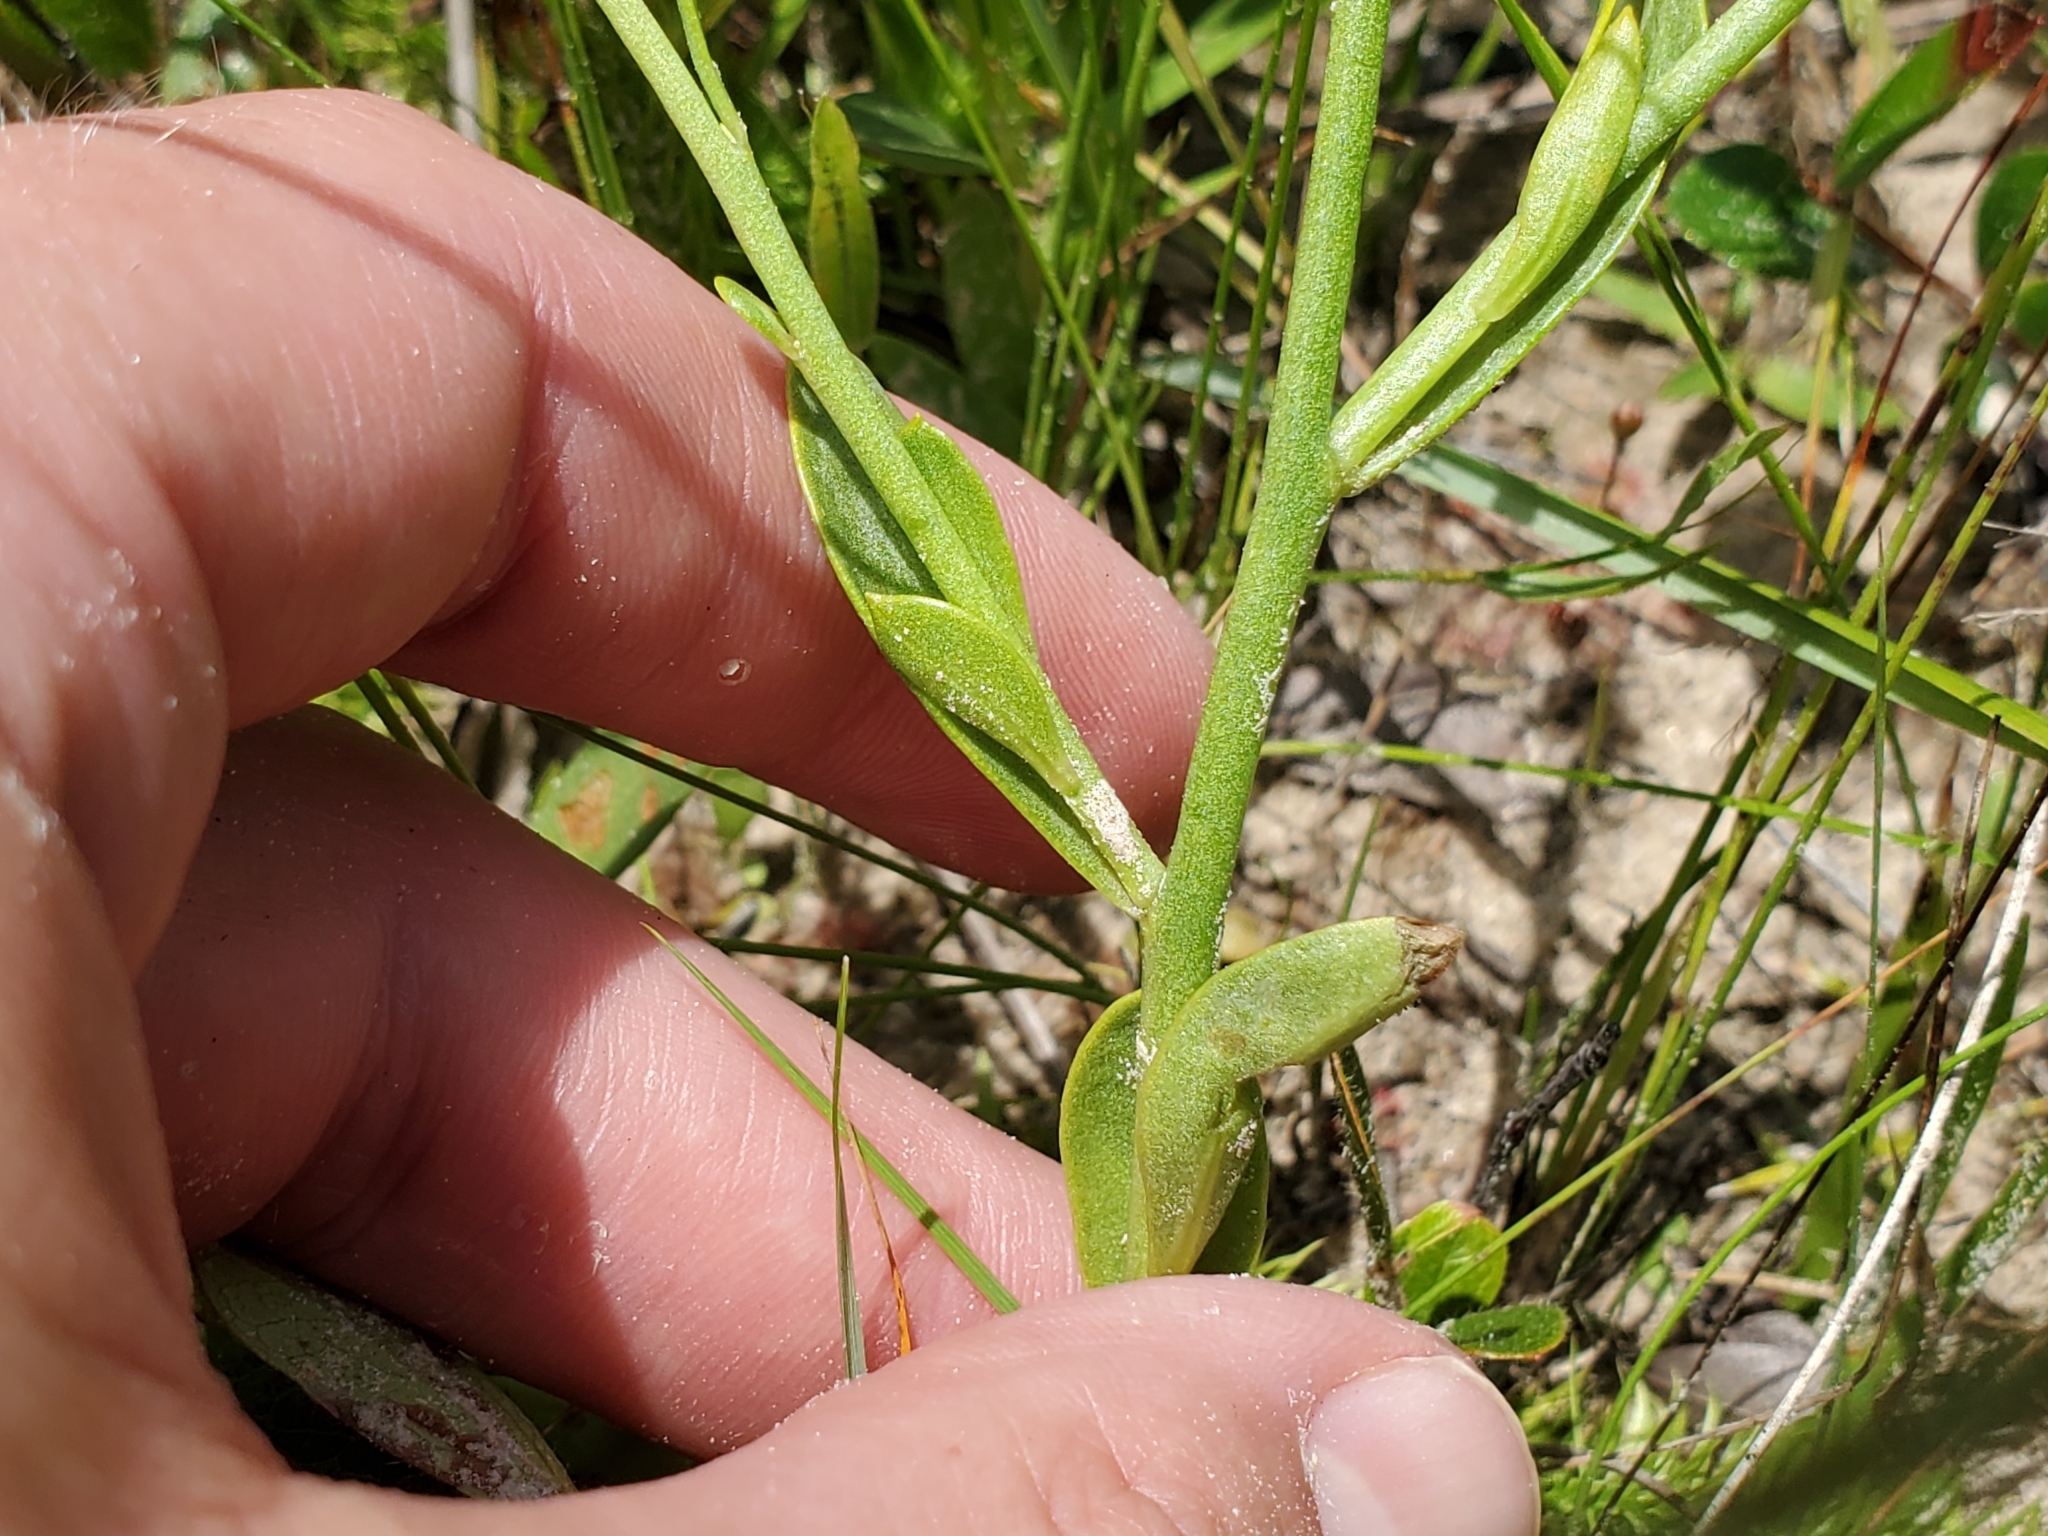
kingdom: Plantae
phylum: Tracheophyta
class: Magnoliopsida
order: Fabales
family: Polygalaceae
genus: Polygala
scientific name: Polygala lutea
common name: Orange milkwort
